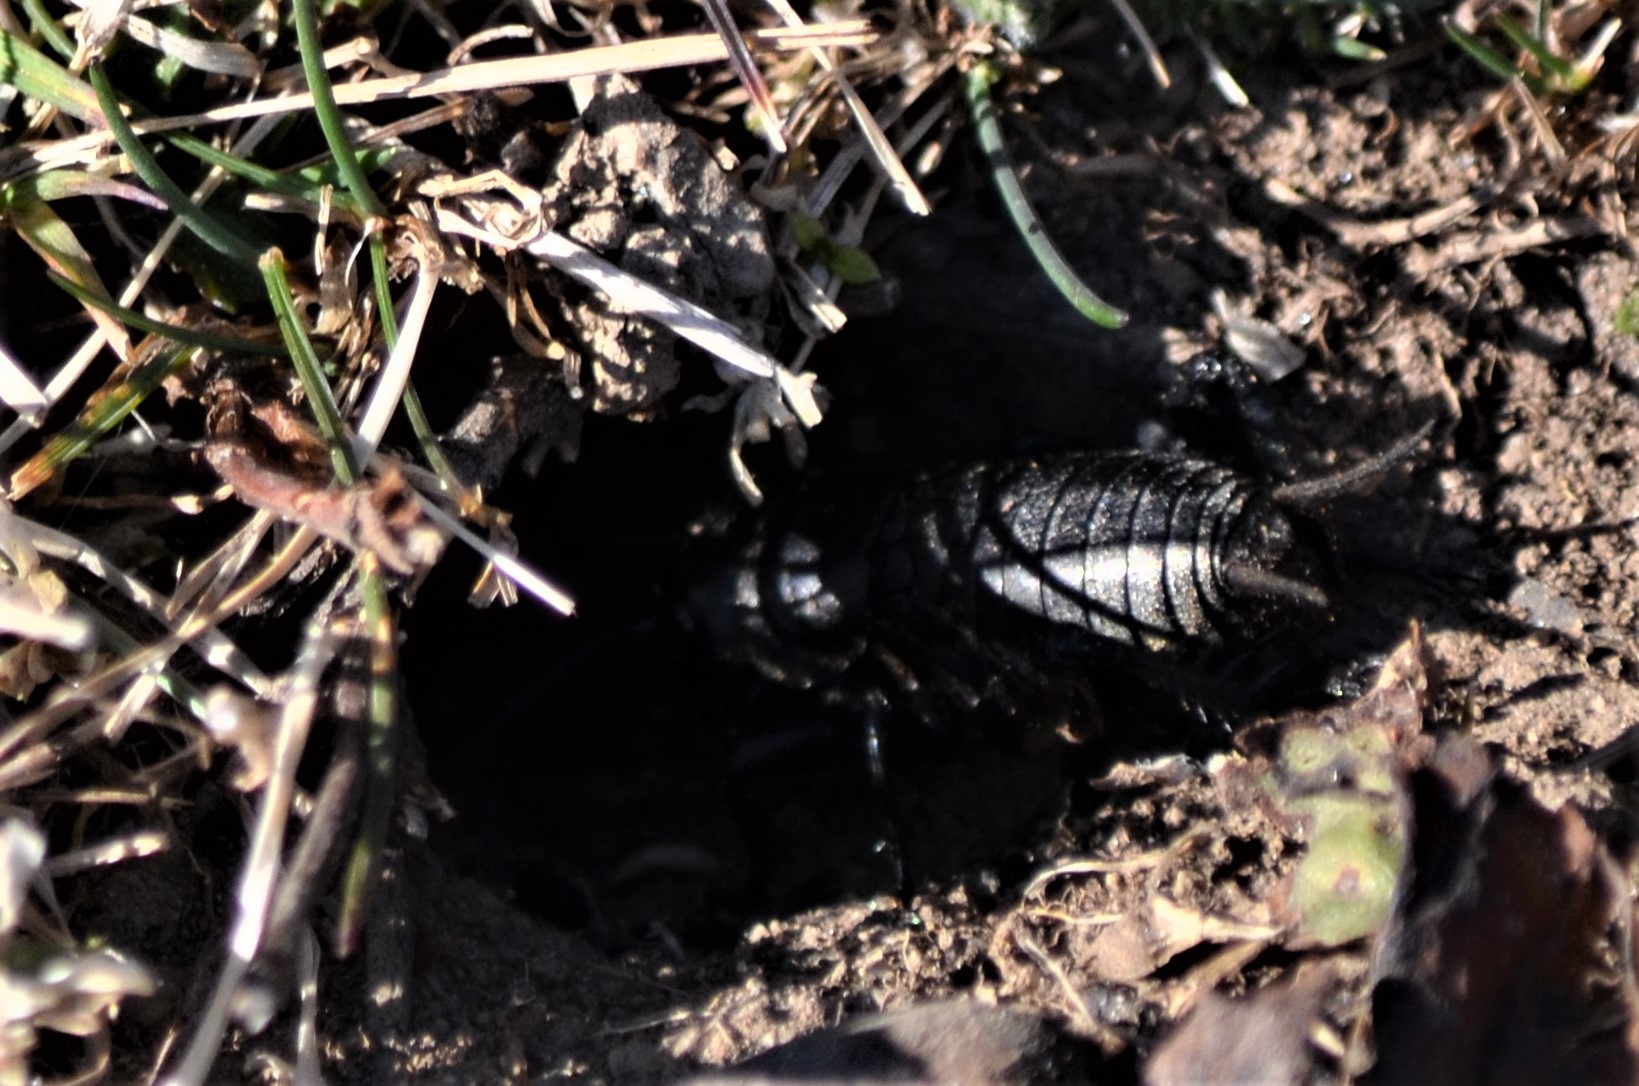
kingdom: Animalia
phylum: Arthropoda
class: Insecta
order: Orthoptera
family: Gryllidae
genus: Gryllus
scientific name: Gryllus campestris
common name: Field cricket
